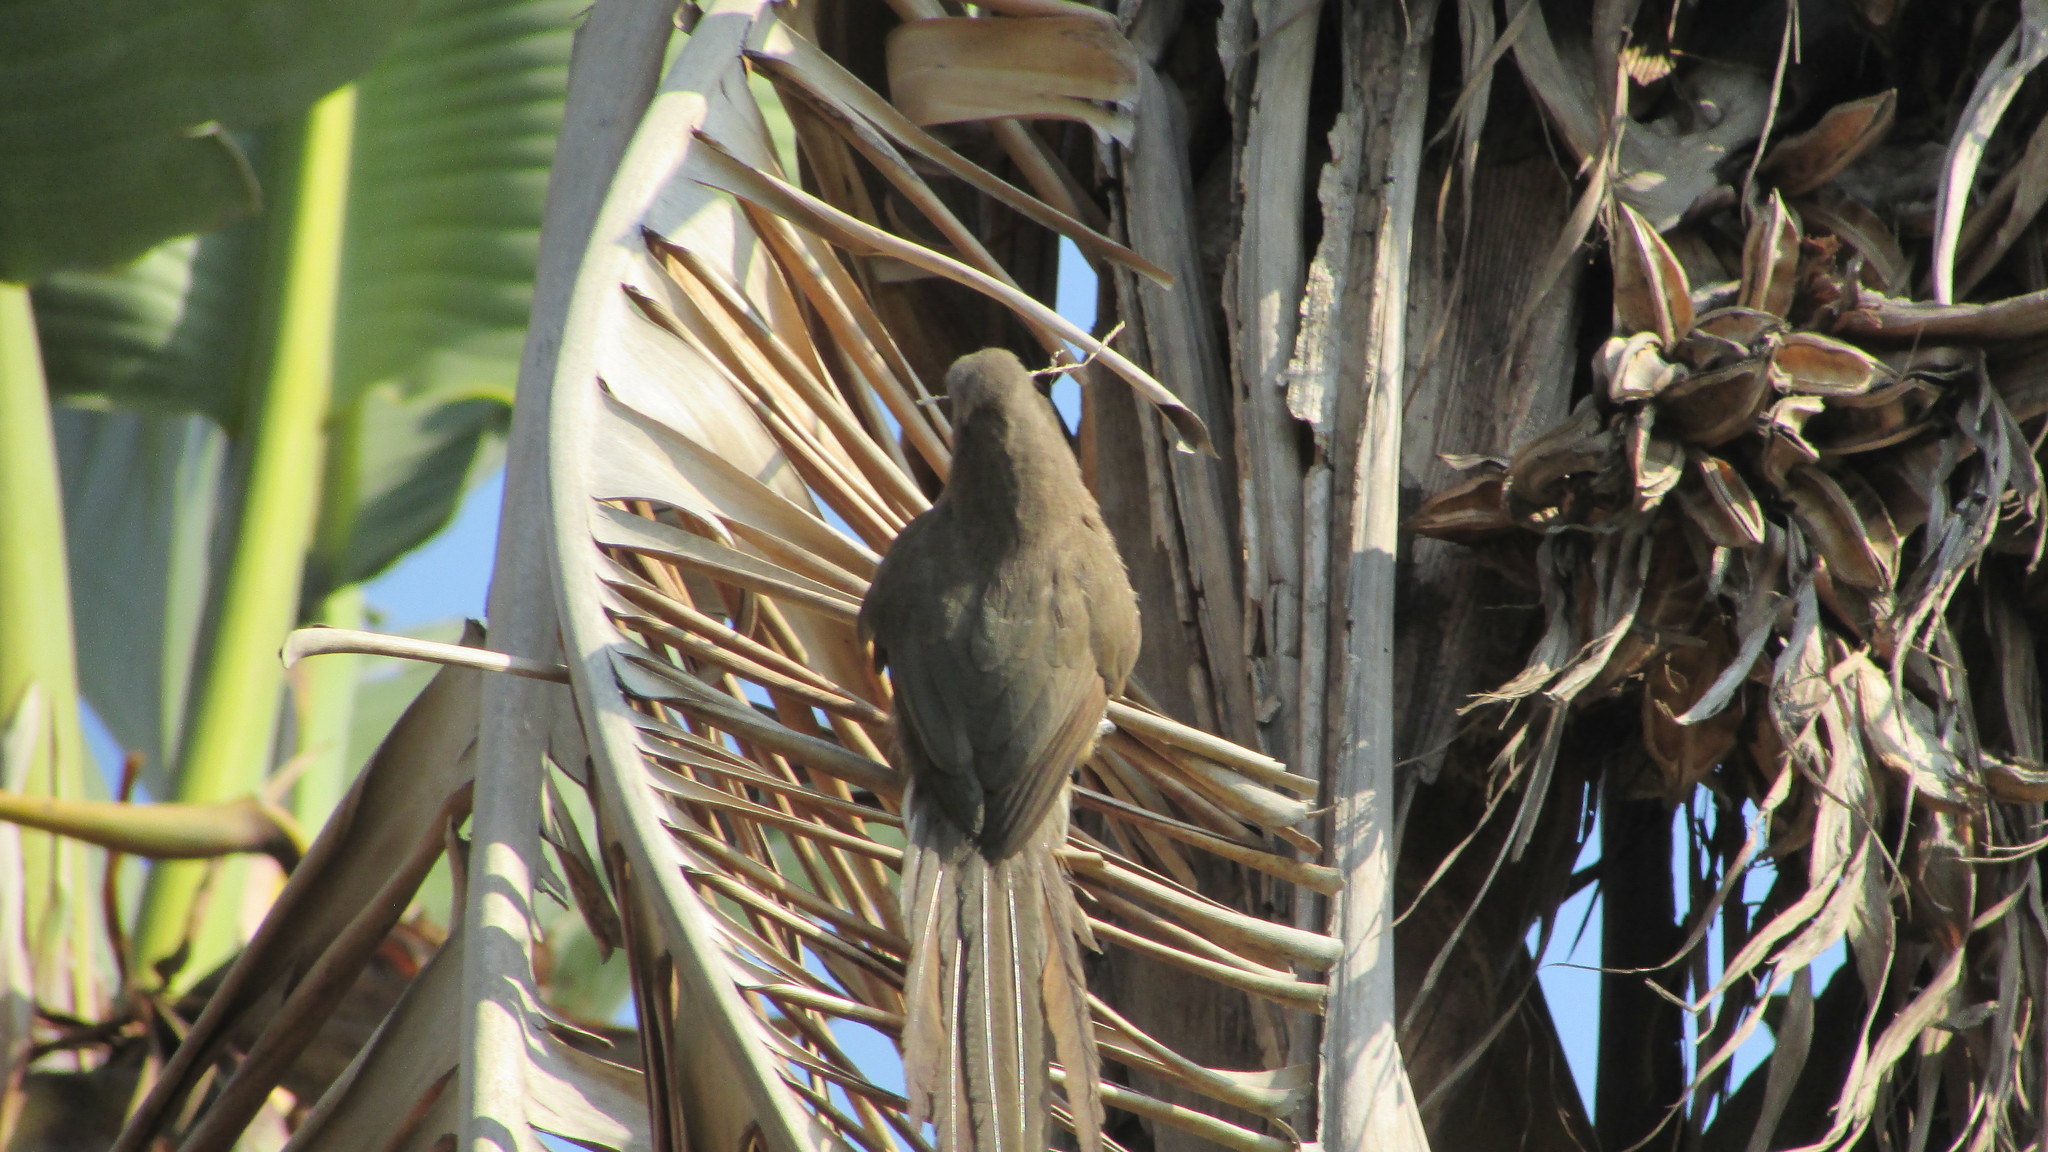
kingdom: Animalia
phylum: Chordata
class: Aves
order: Coliiformes
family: Coliidae
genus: Colius
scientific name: Colius striatus
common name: Speckled mousebird
